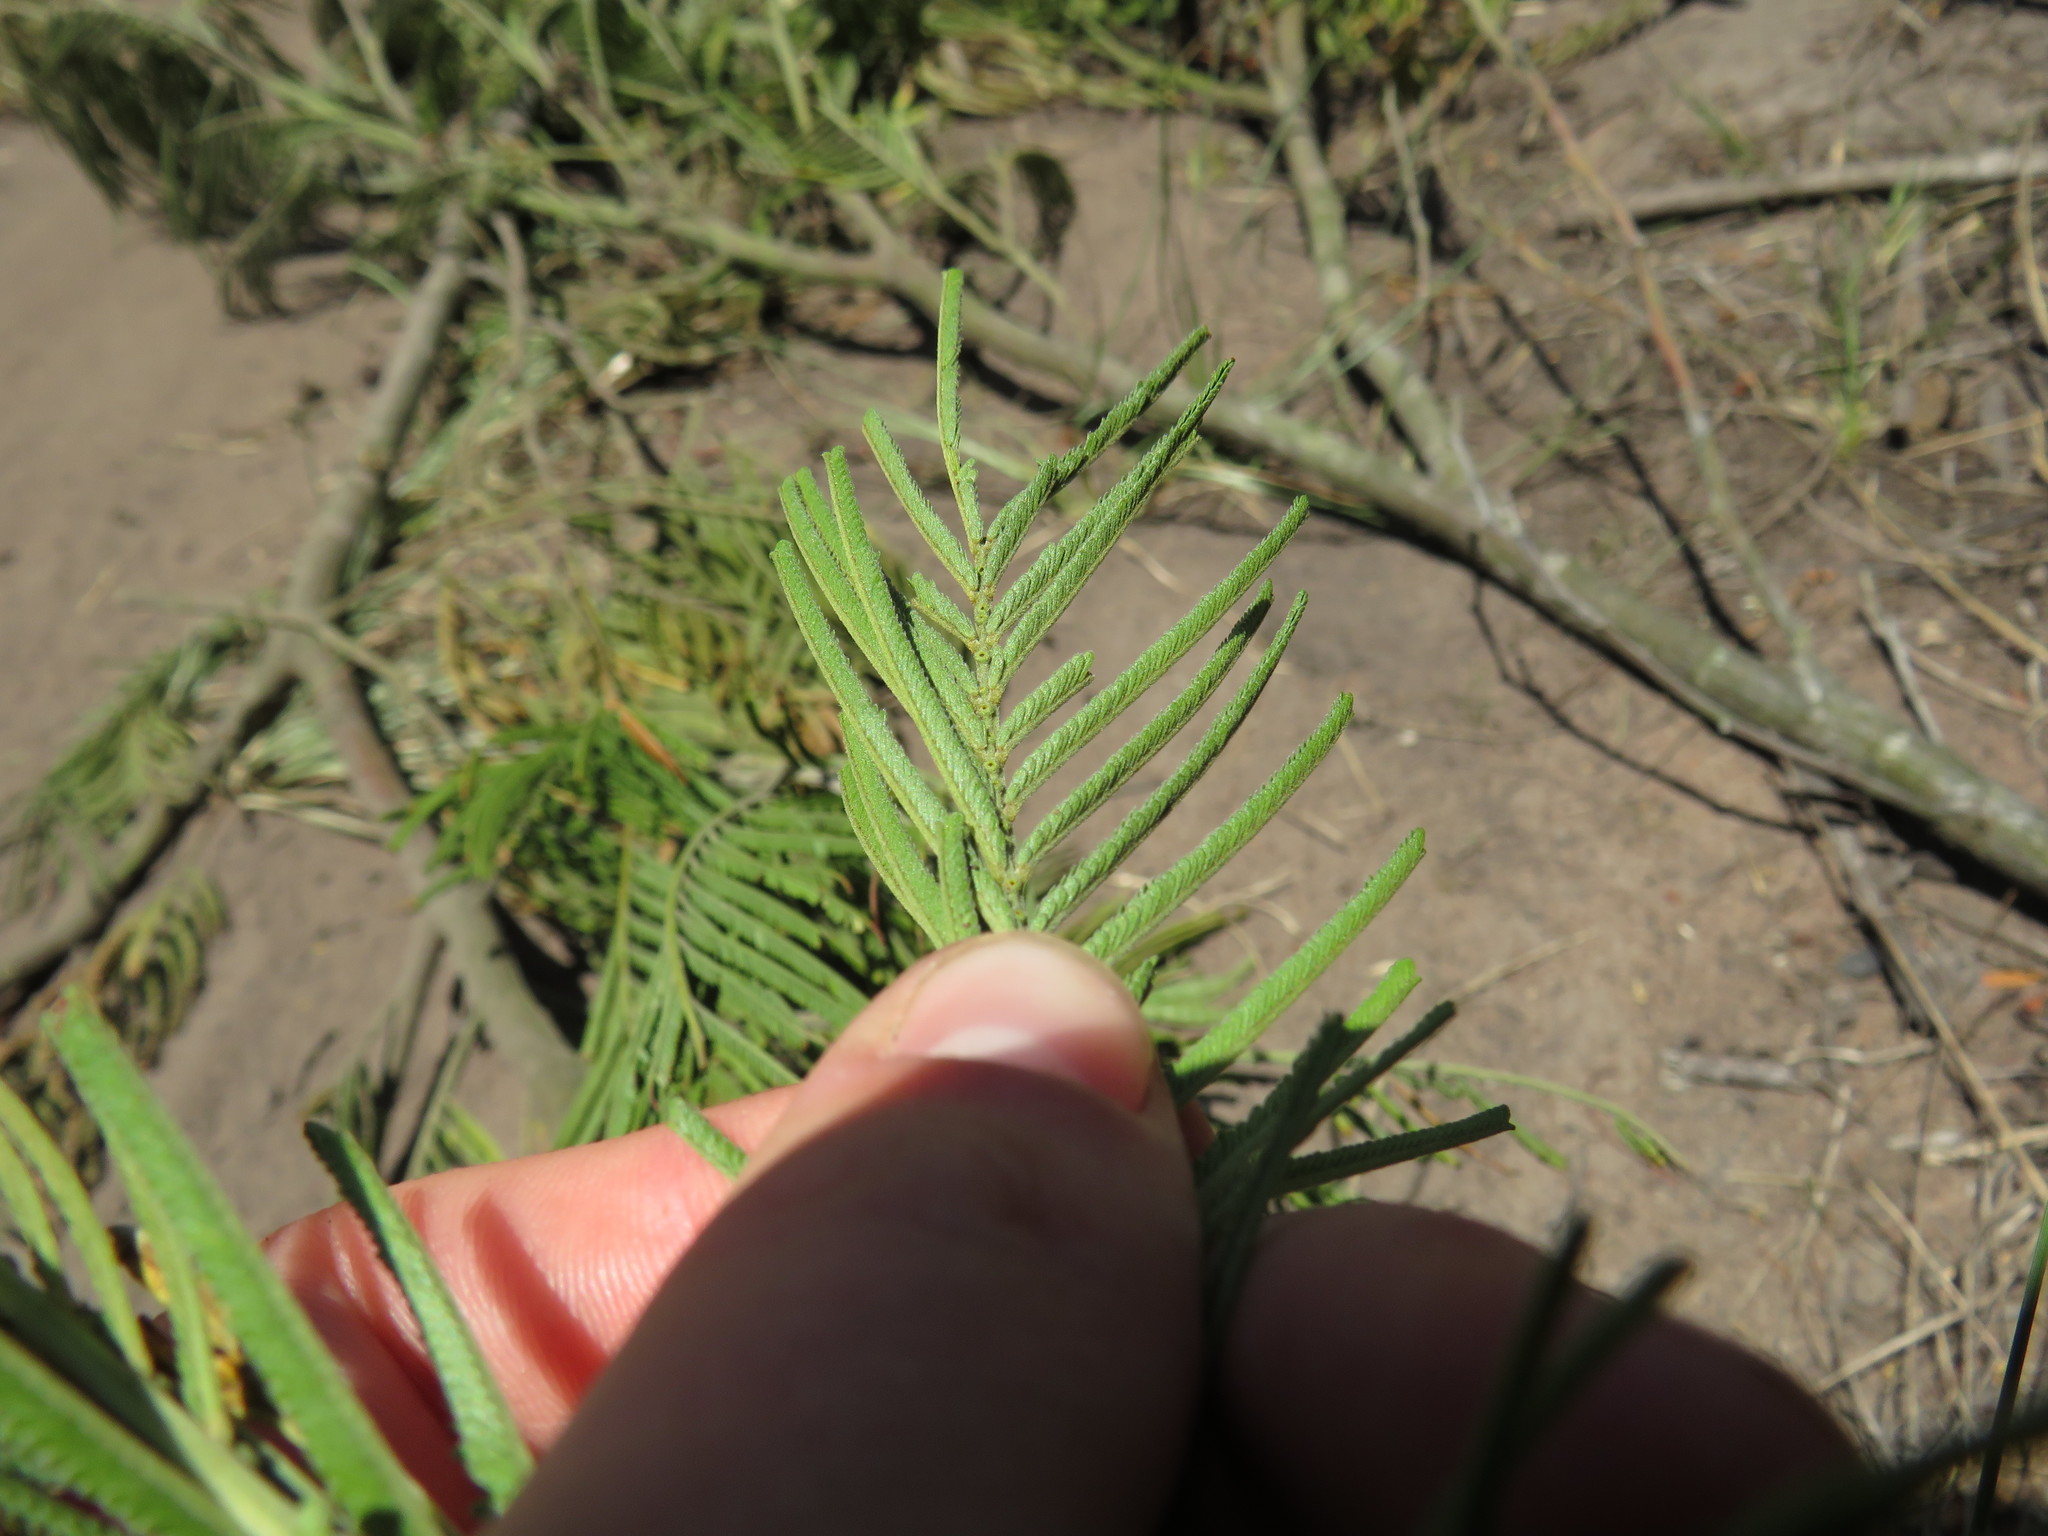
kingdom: Animalia
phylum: Arthropoda
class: Insecta
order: Diptera
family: Cecidomyiidae
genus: Dasineura
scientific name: Dasineura rubiformis
